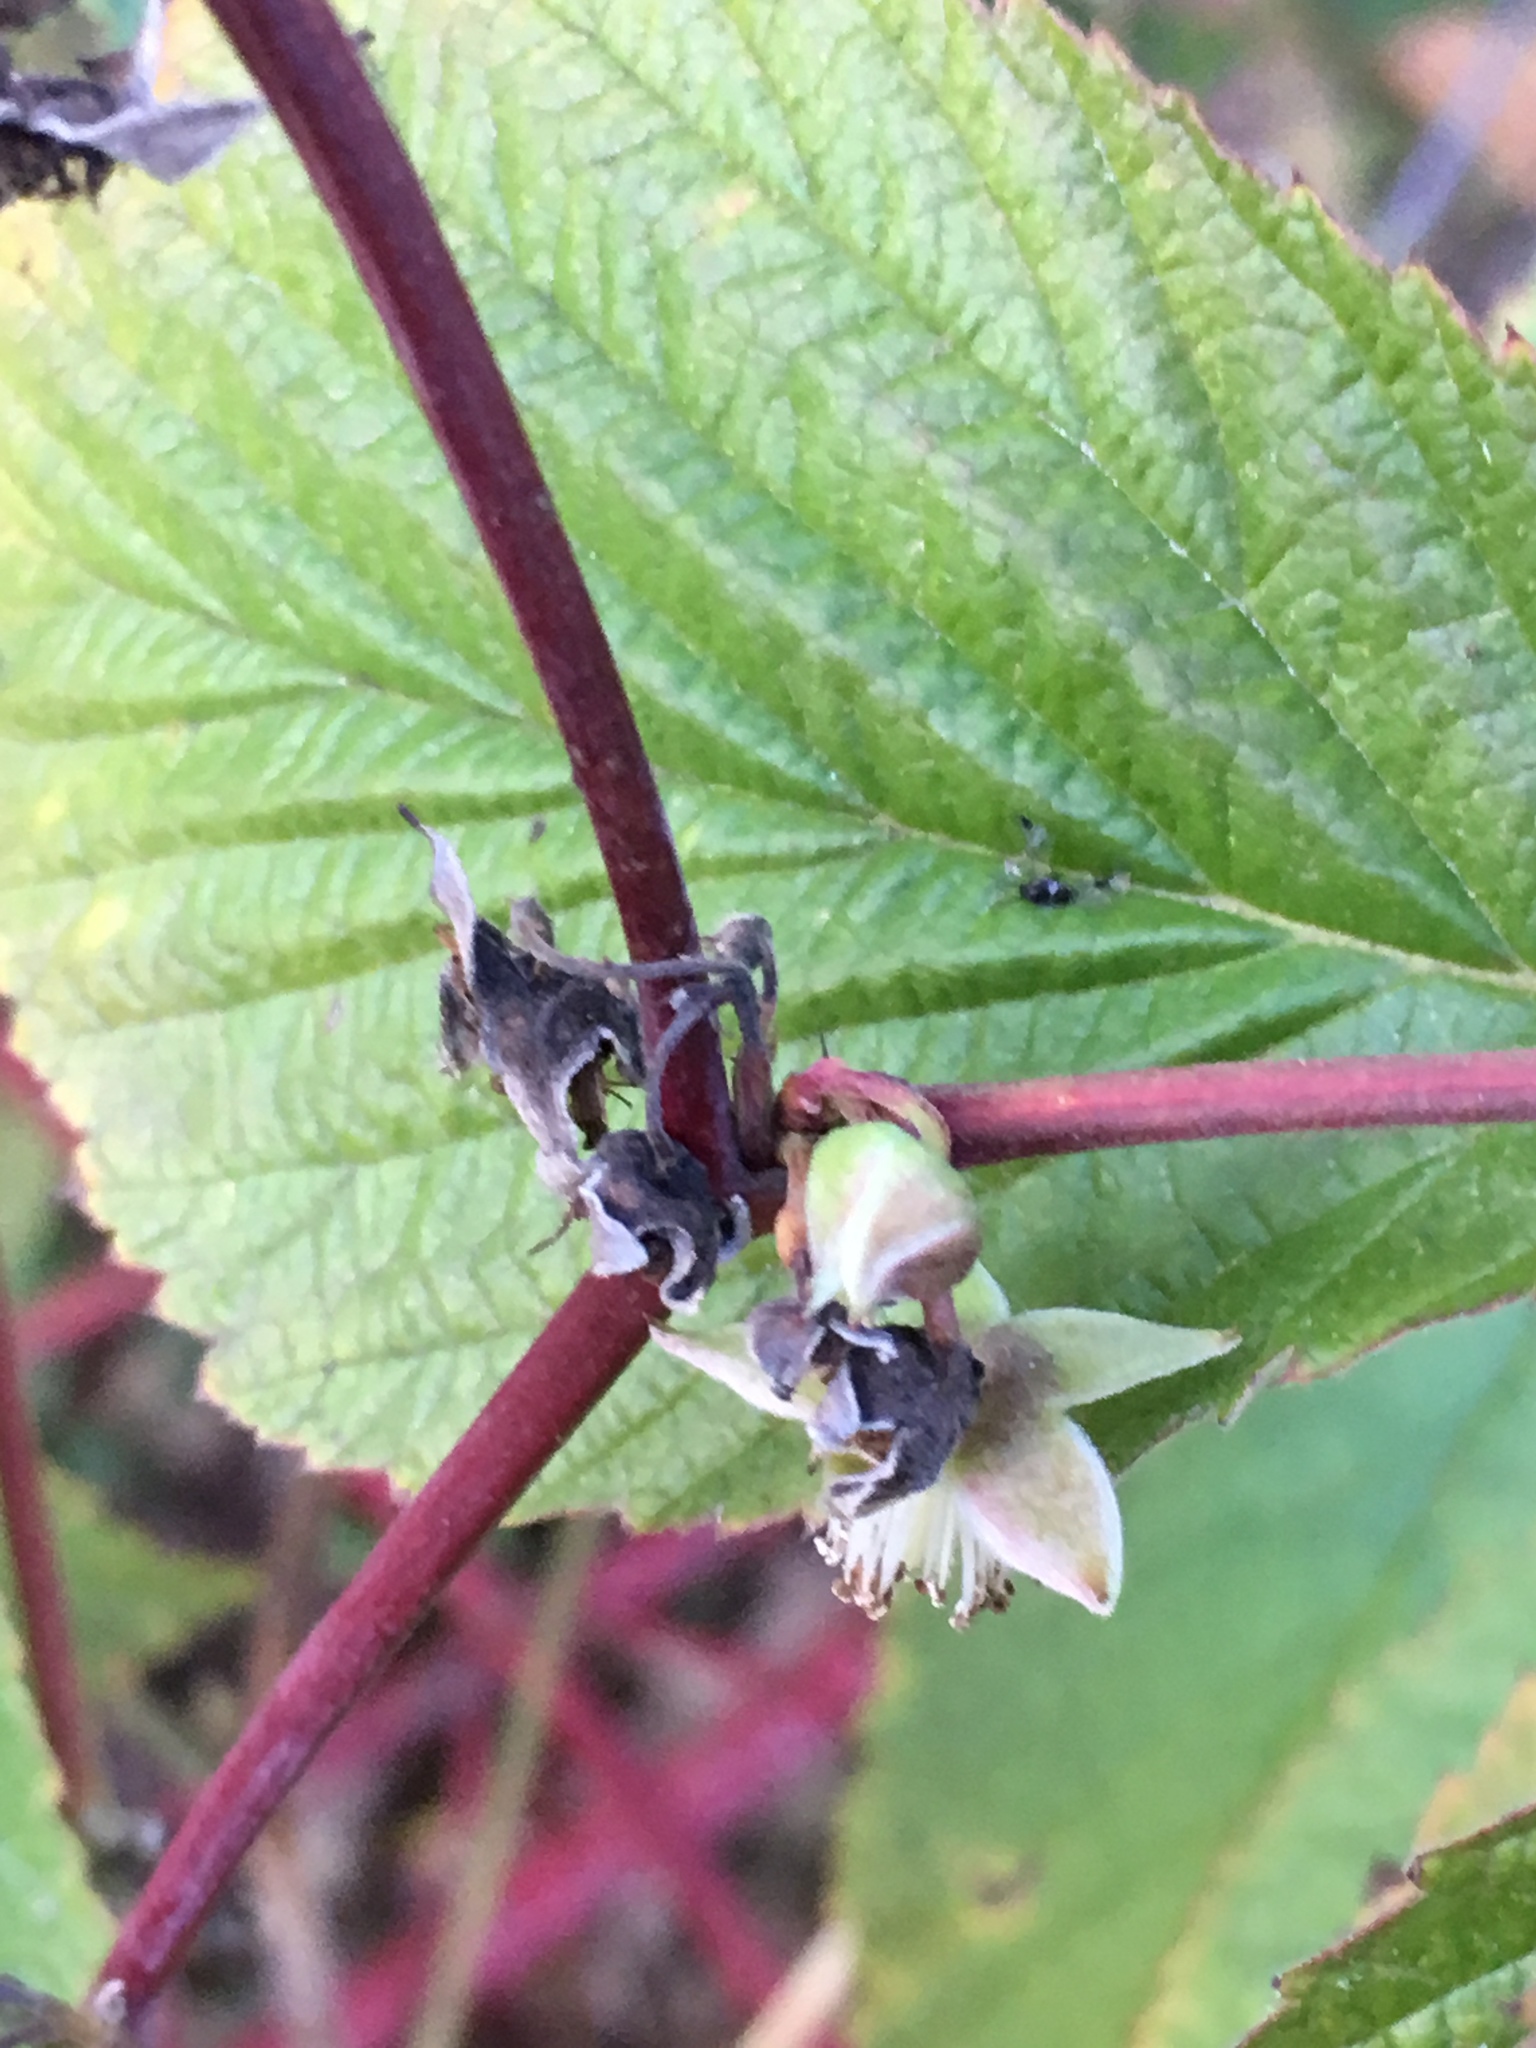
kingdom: Plantae
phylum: Tracheophyta
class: Magnoliopsida
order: Rosales
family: Rosaceae
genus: Rubus
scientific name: Rubus idaeus
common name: Raspberry
